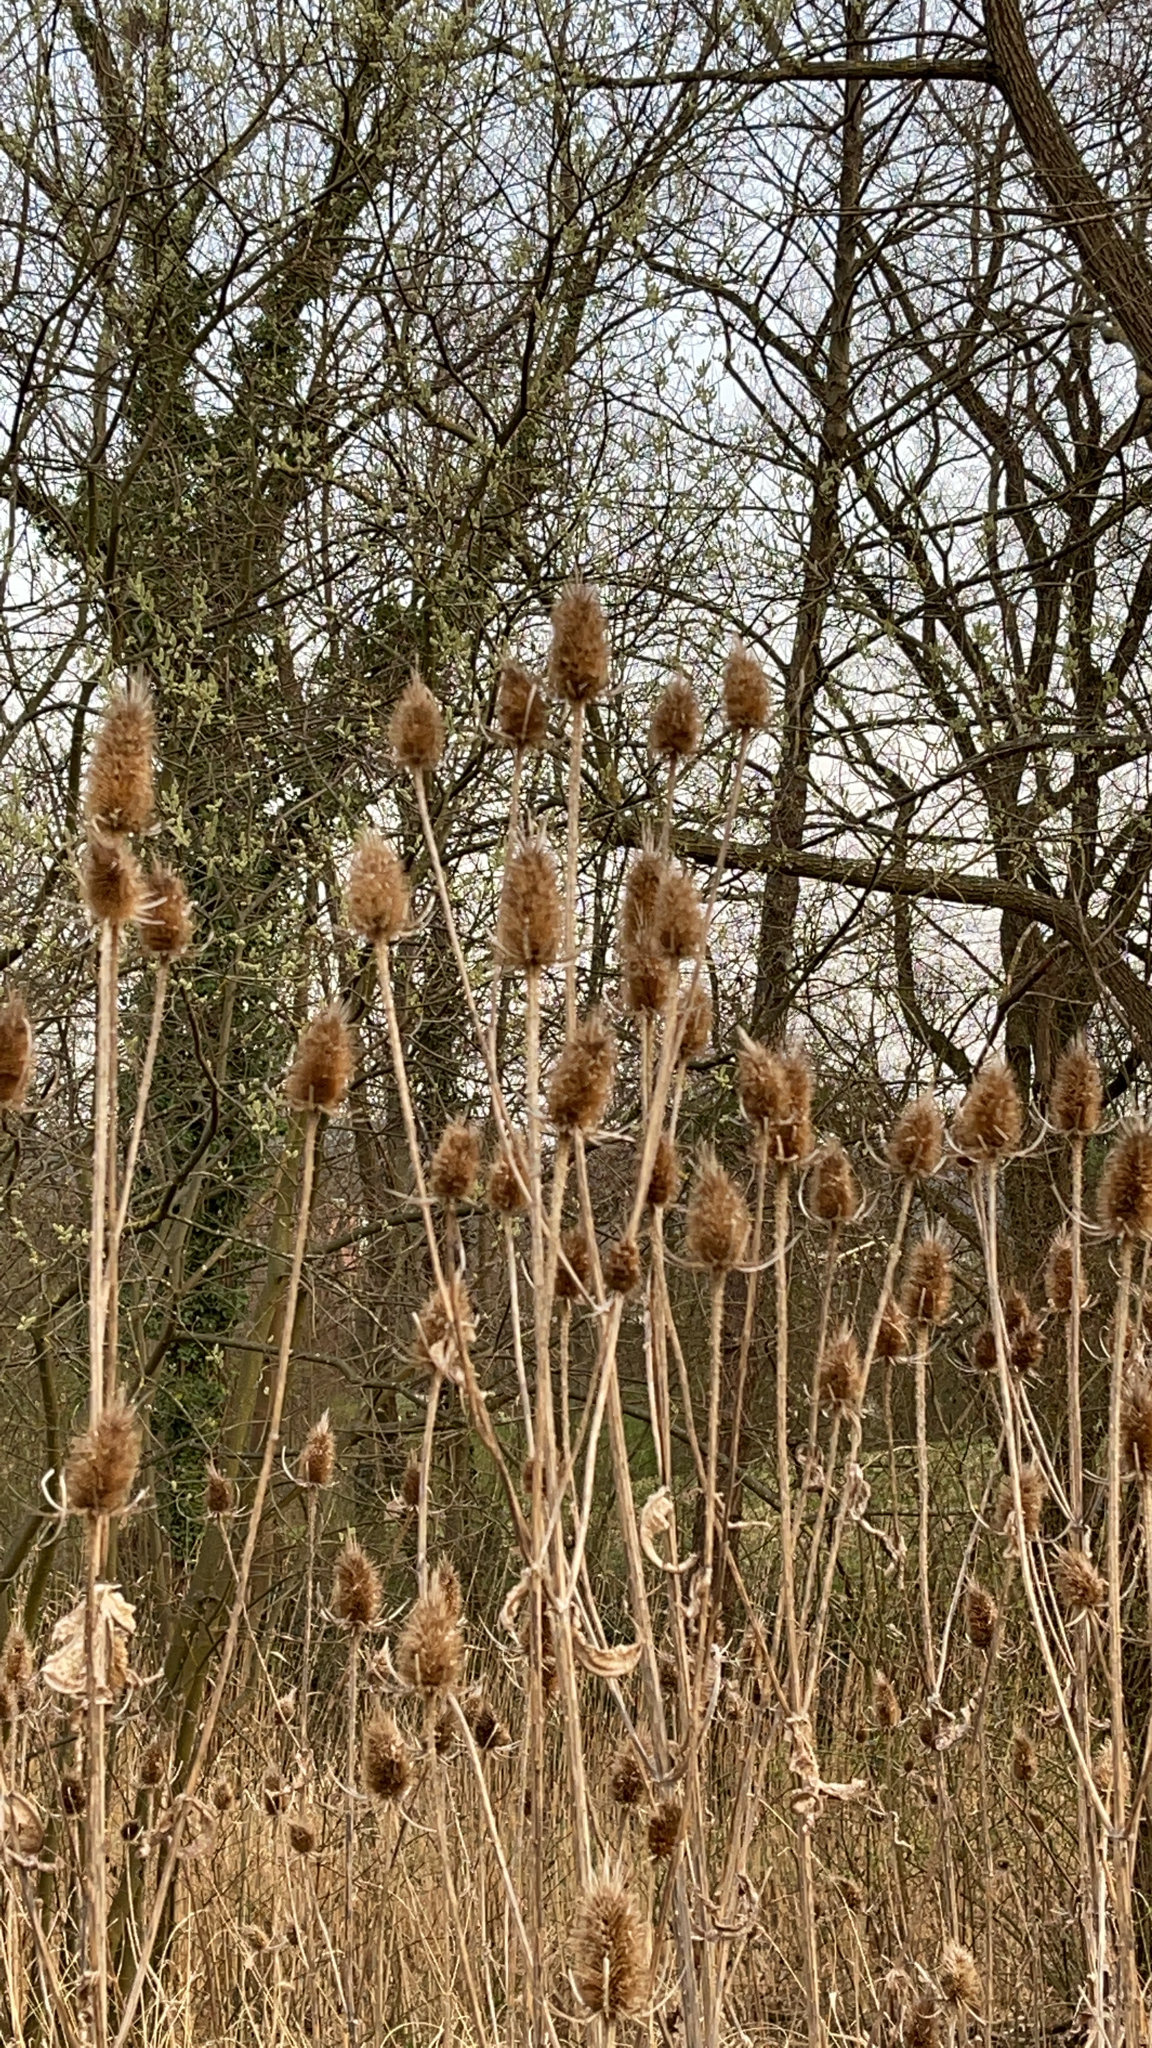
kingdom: Plantae
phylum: Tracheophyta
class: Magnoliopsida
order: Dipsacales
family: Caprifoliaceae
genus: Dipsacus
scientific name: Dipsacus fullonum
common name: Teasel
